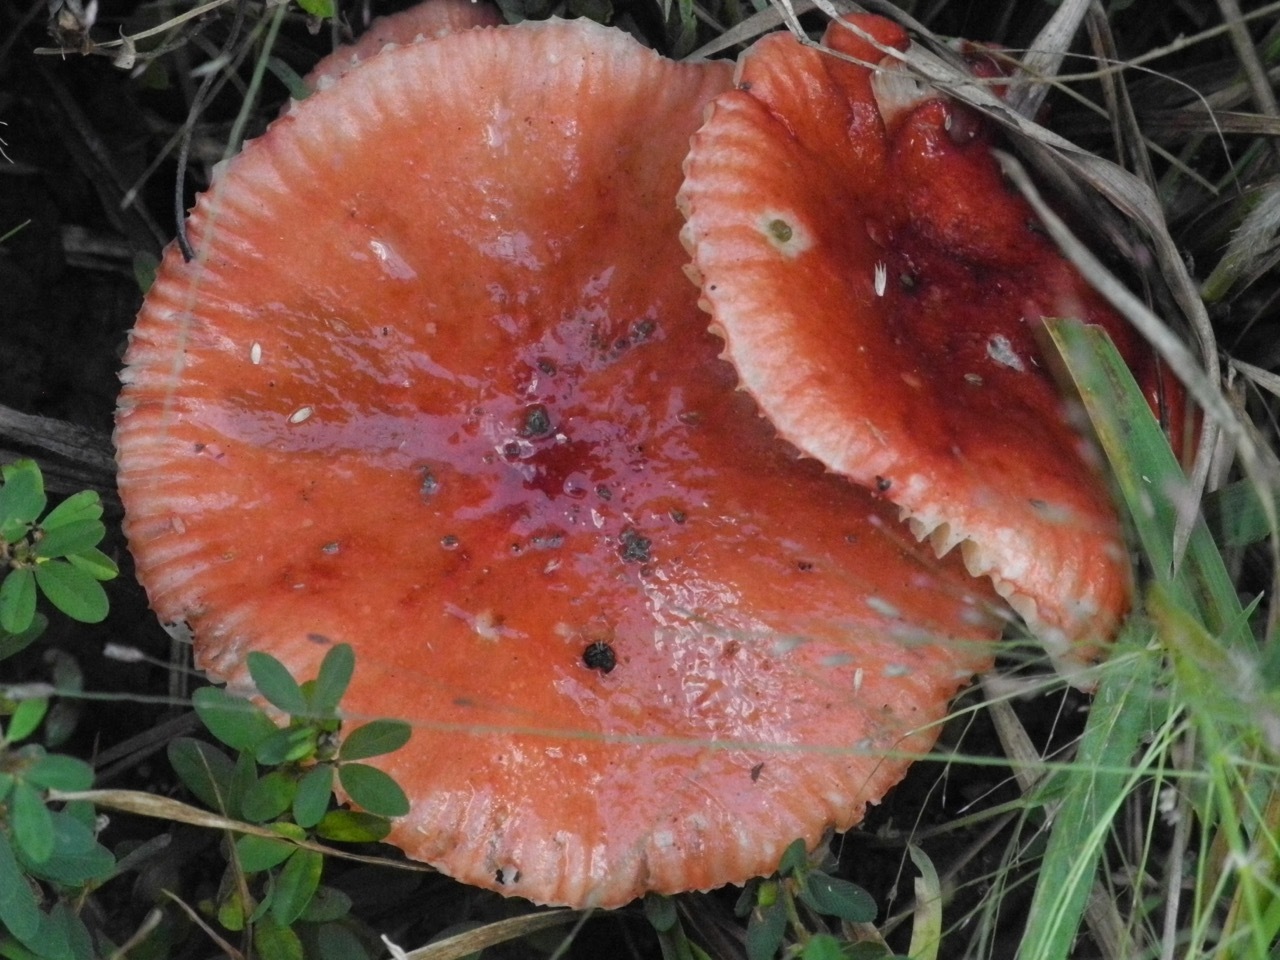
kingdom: Fungi
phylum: Basidiomycota
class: Agaricomycetes
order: Russulales
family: Russulaceae
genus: Russula
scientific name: Russula
